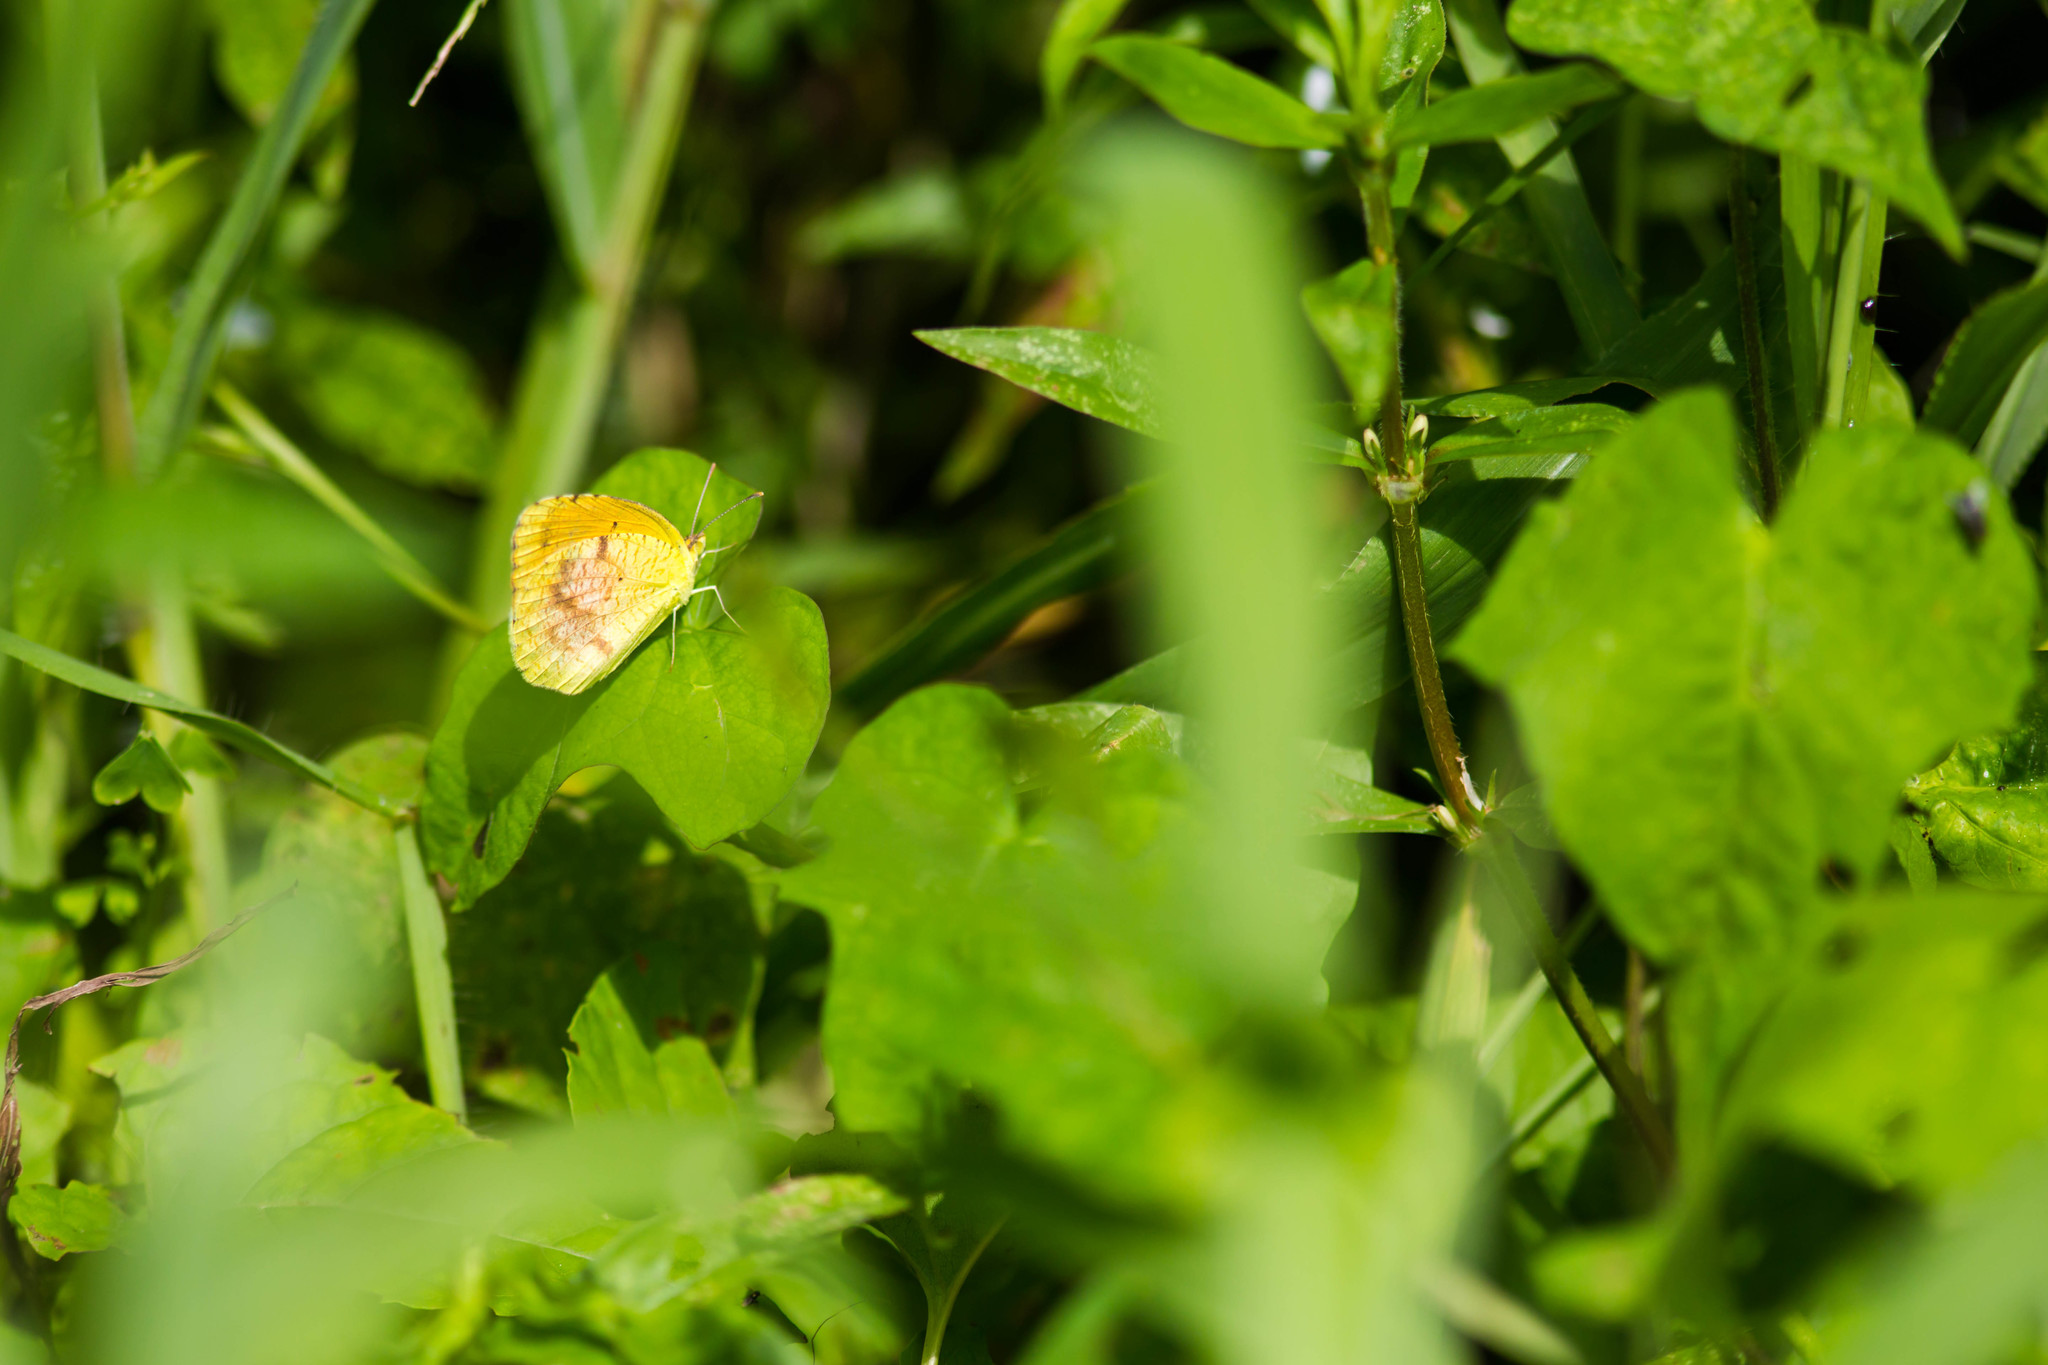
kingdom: Animalia
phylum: Arthropoda
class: Insecta
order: Lepidoptera
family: Pieridae
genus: Abaeis
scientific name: Abaeis nicippe
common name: Sleepy orange
